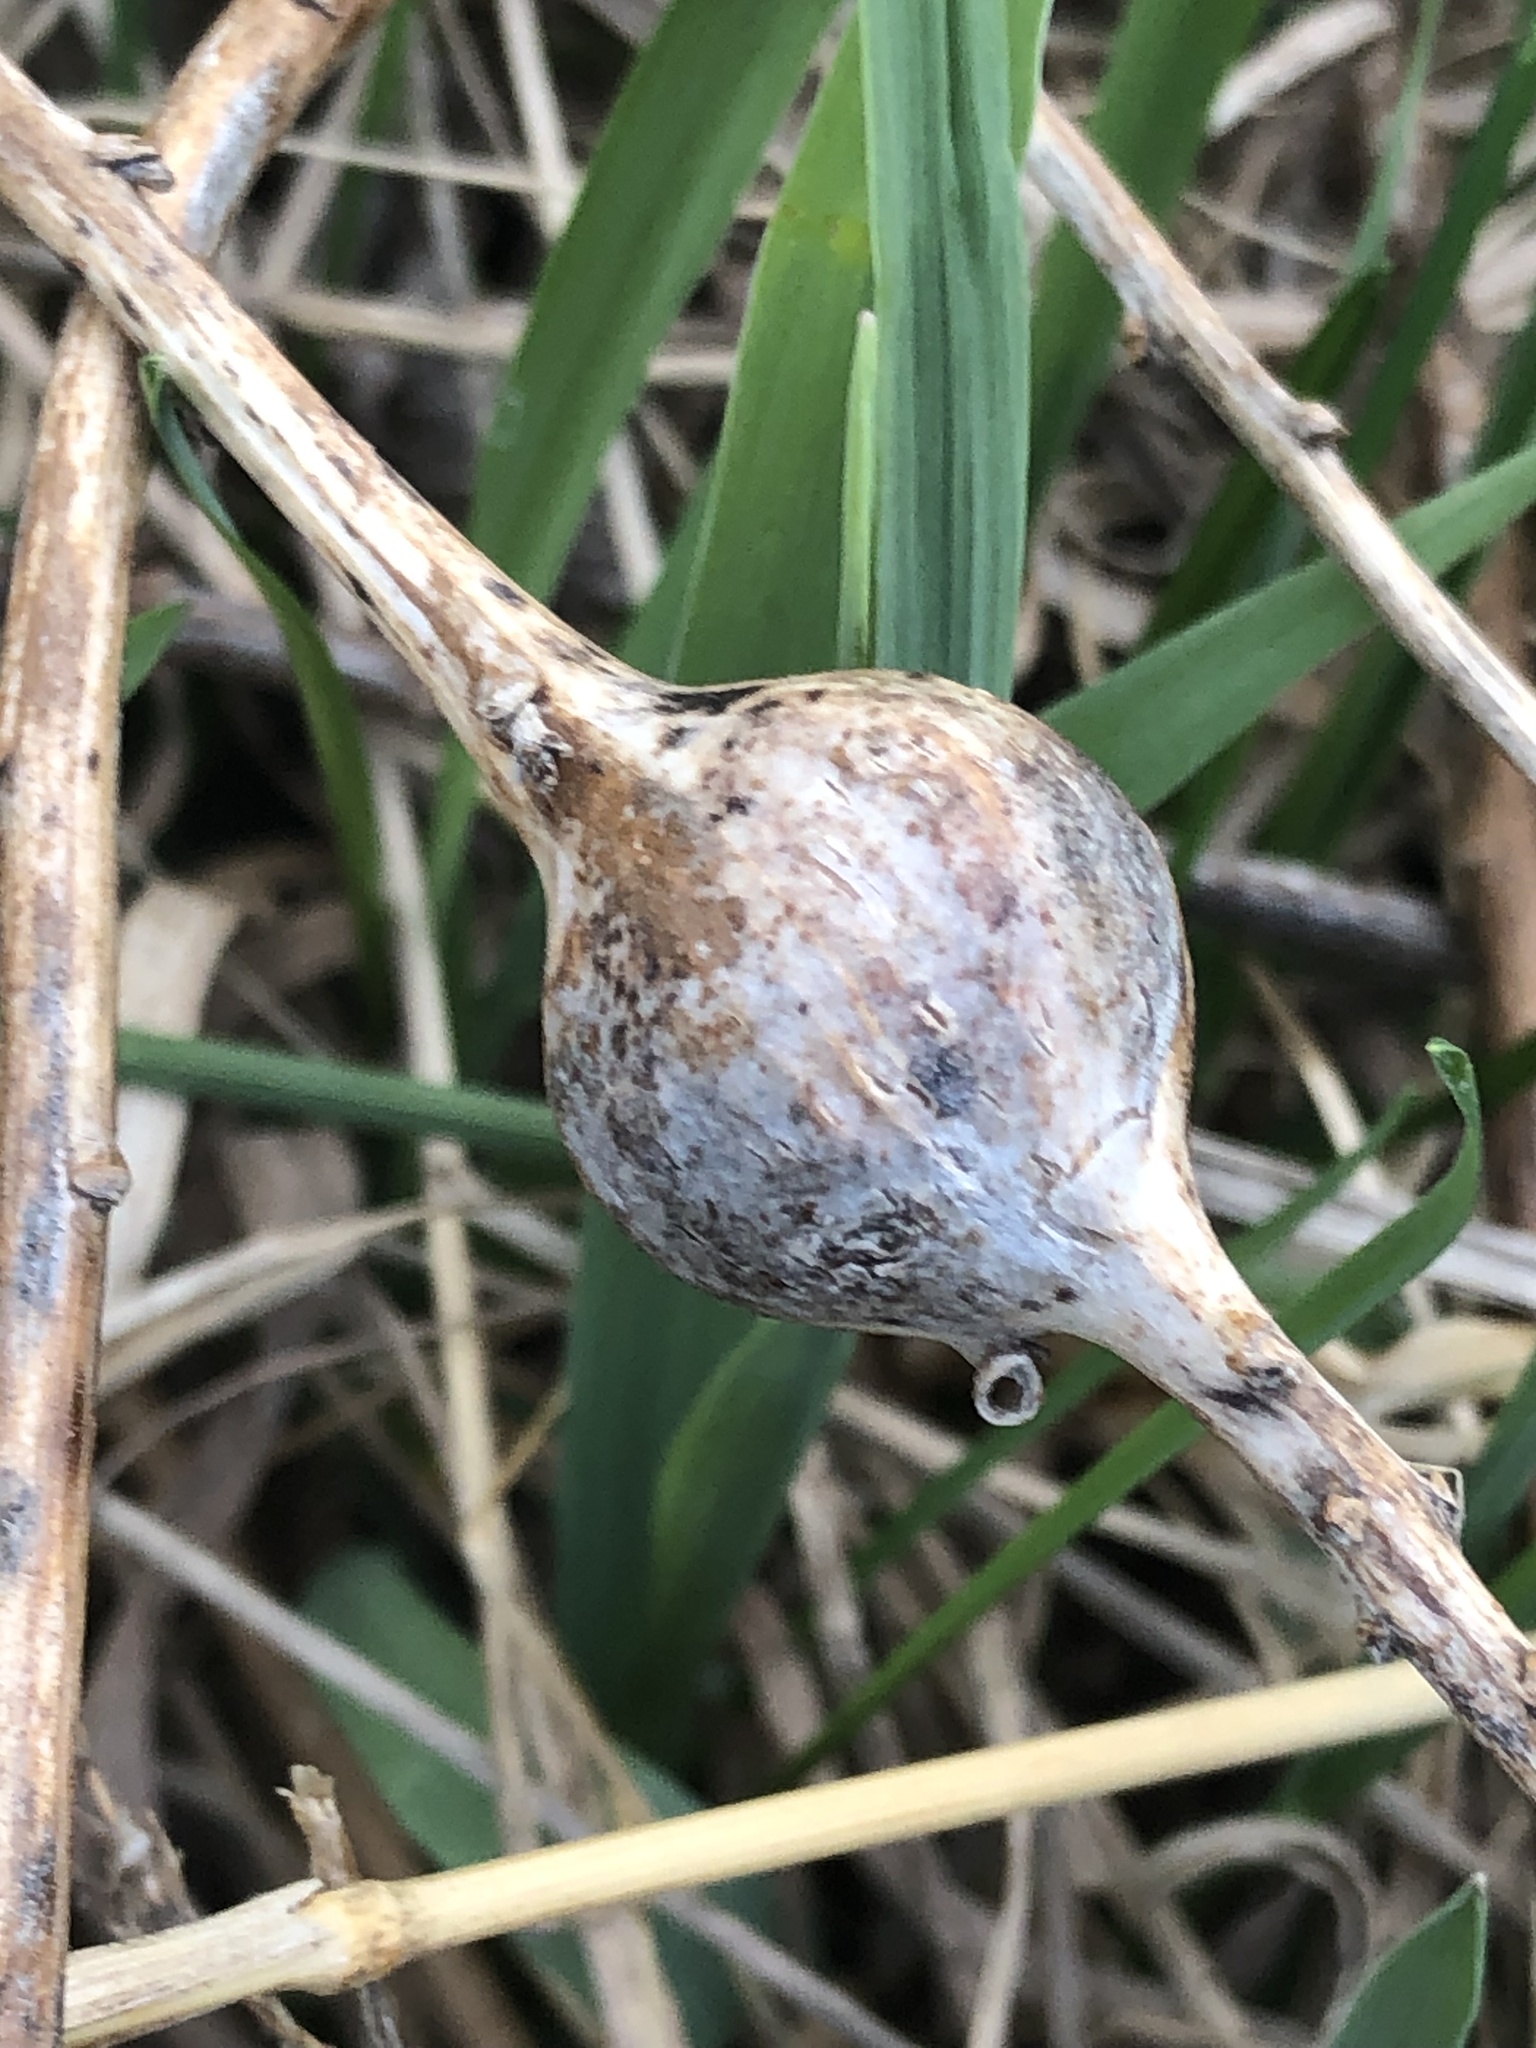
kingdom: Animalia
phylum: Arthropoda
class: Insecta
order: Diptera
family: Tephritidae
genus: Eurosta
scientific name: Eurosta solidaginis
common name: Goldenrod gall fly
